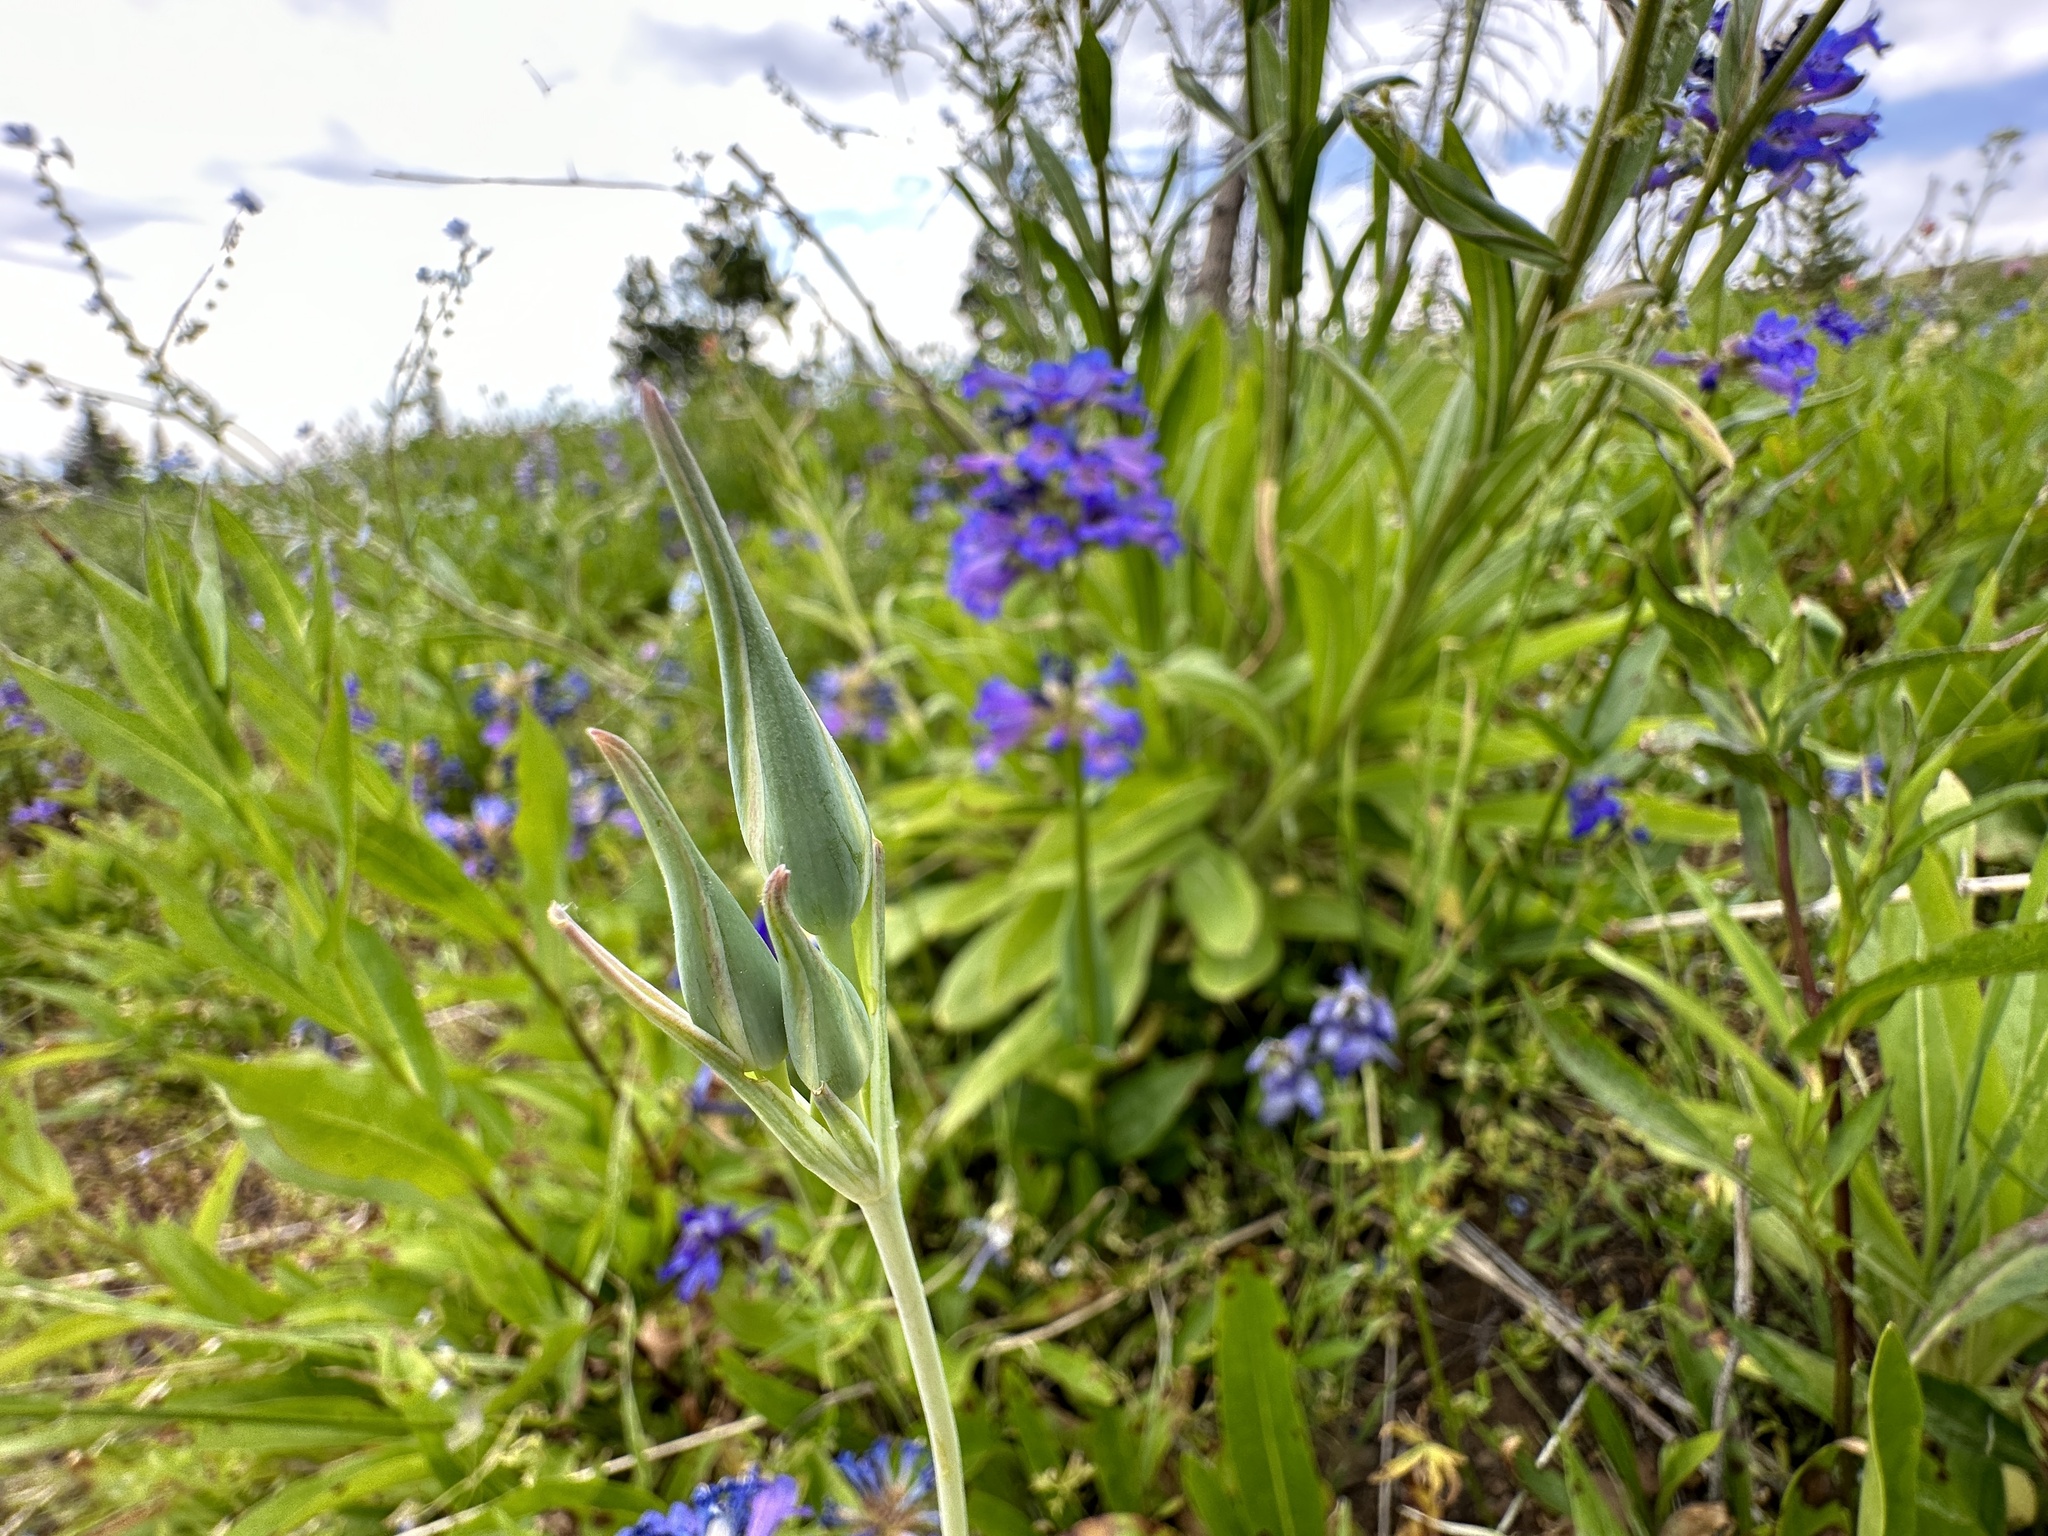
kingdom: Plantae
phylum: Tracheophyta
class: Liliopsida
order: Liliales
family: Liliaceae
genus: Calochortus
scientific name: Calochortus eurycarpus
